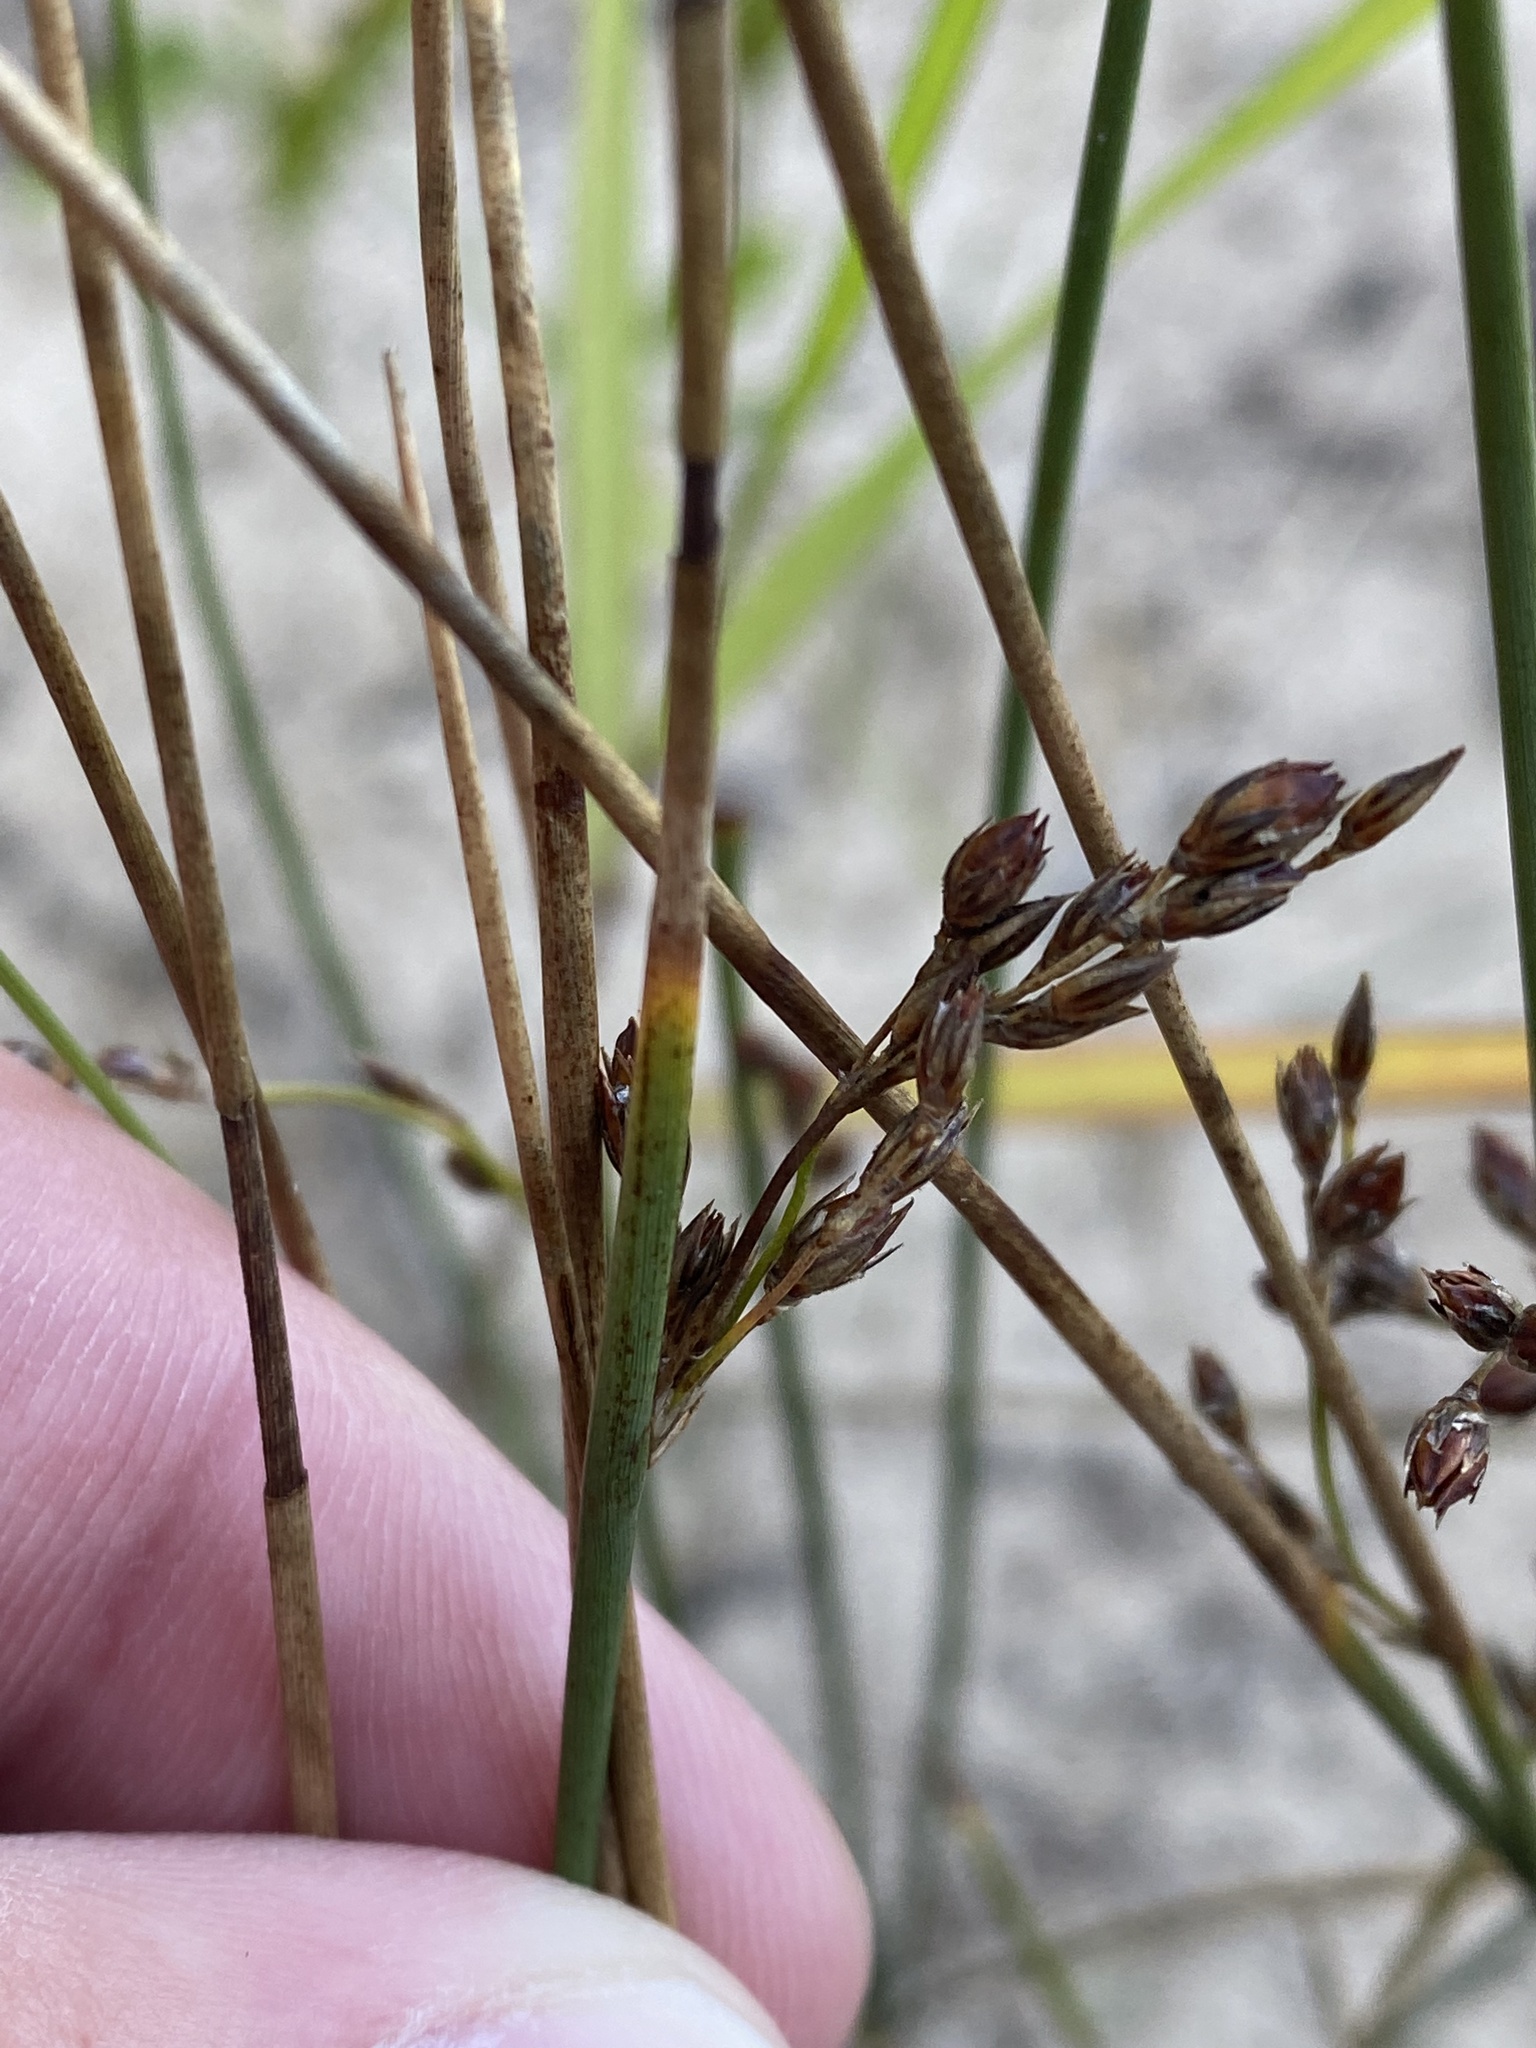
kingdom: Plantae
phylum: Tracheophyta
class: Liliopsida
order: Poales
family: Juncaceae
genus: Juncus
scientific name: Juncus balticus
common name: Baltic rush
